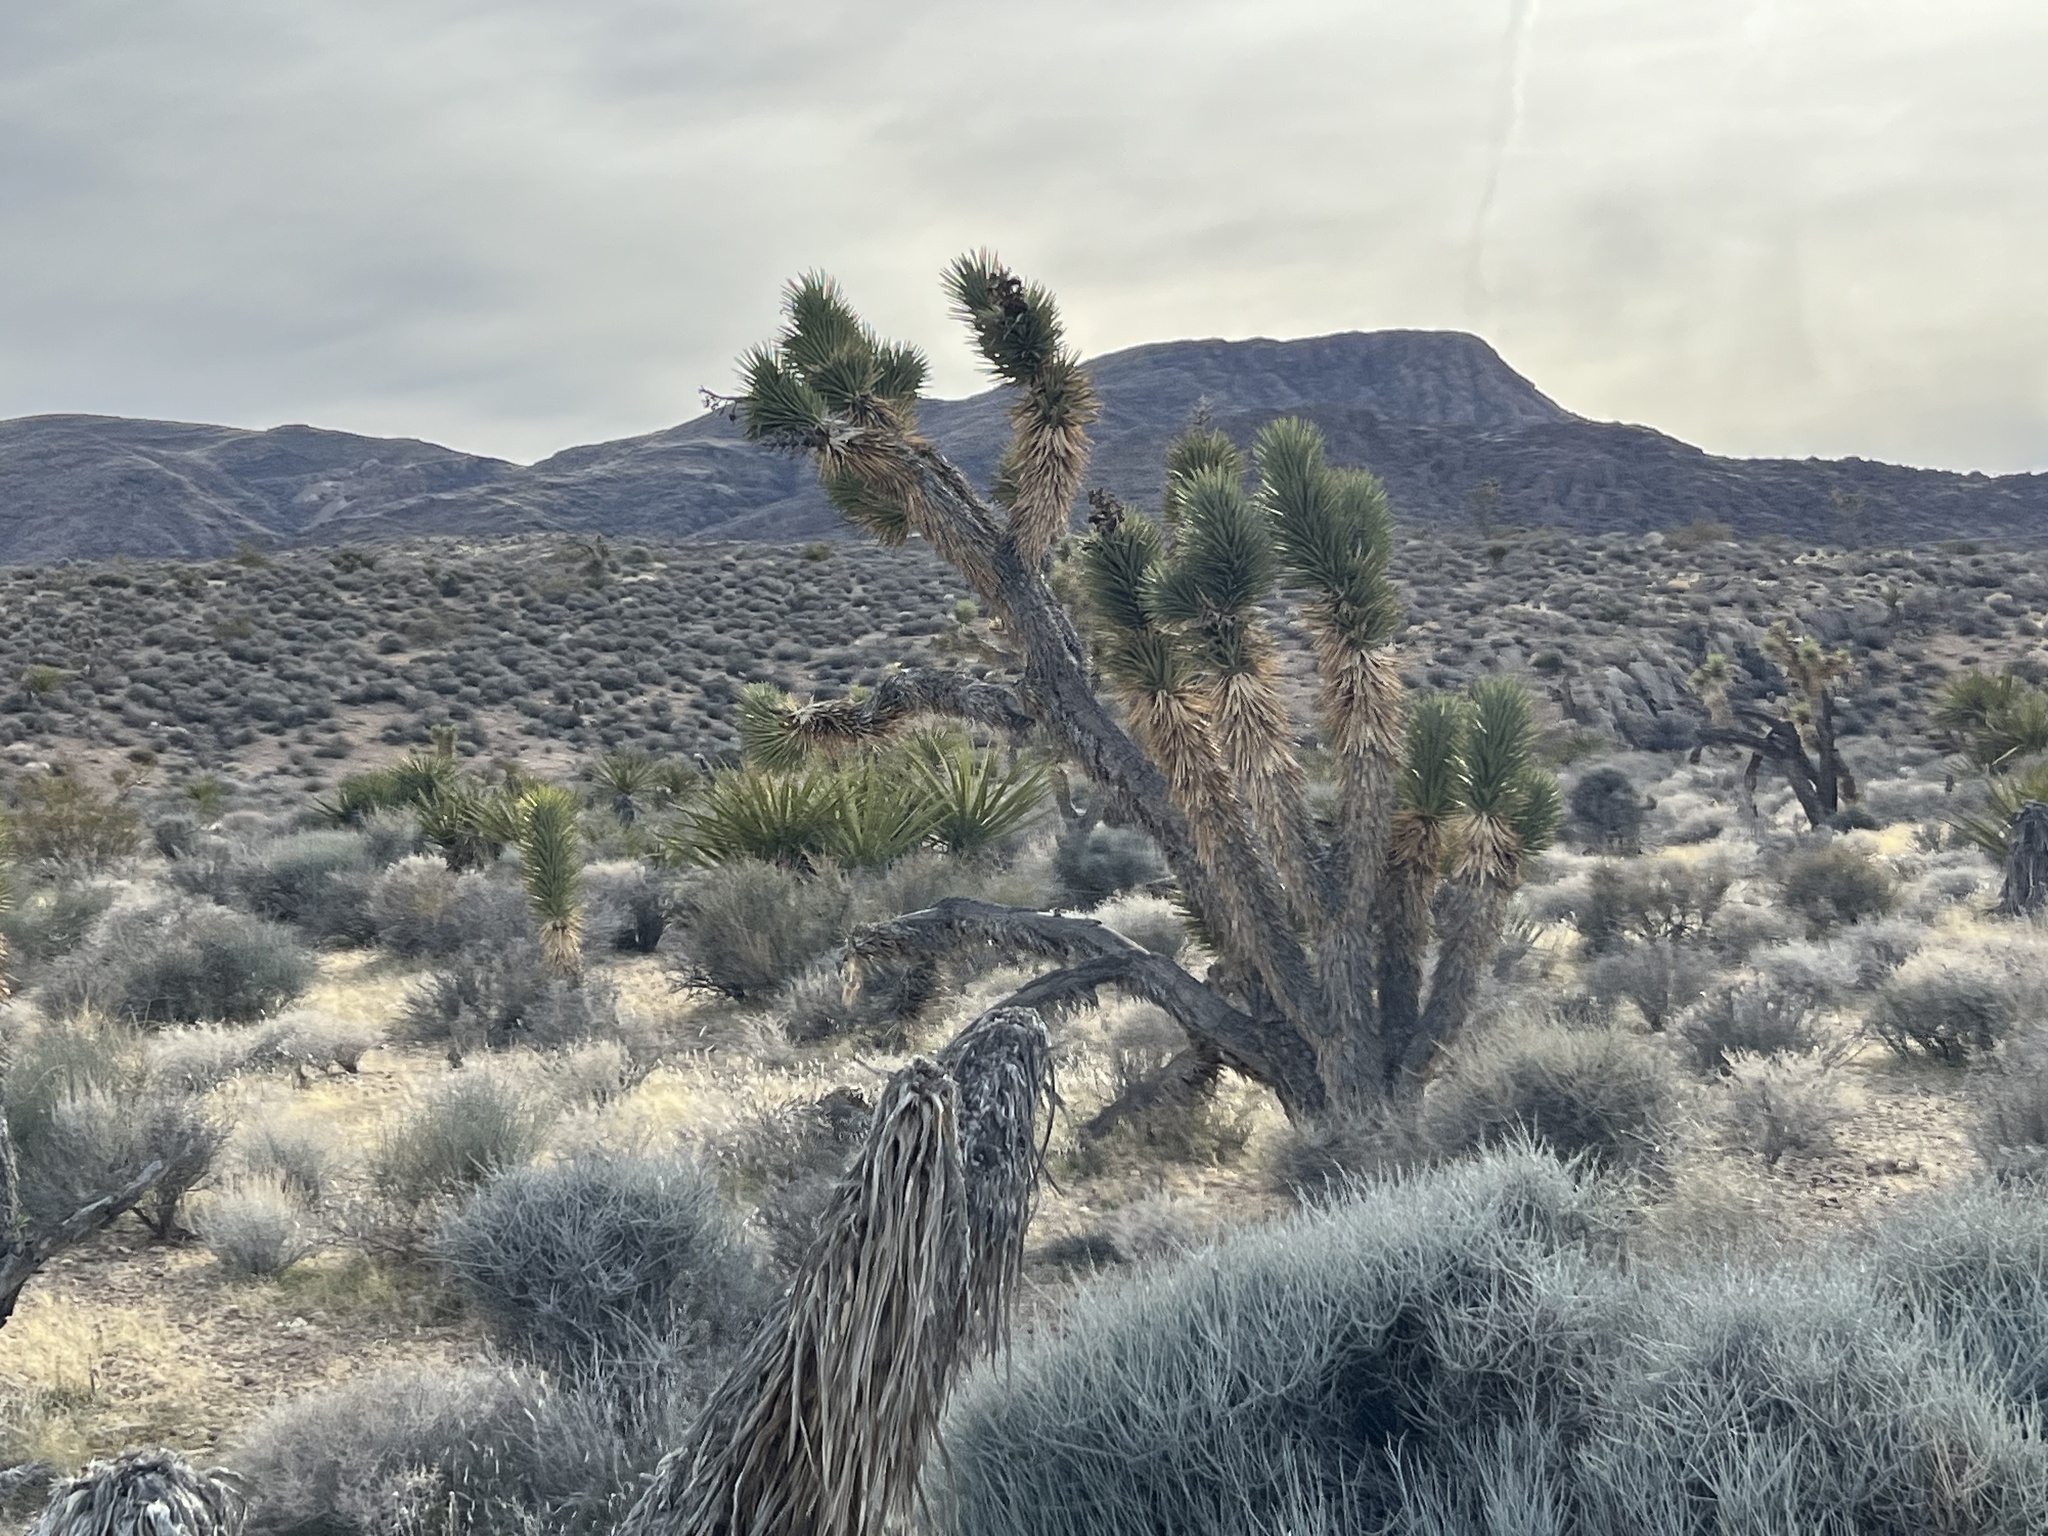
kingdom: Plantae
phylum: Tracheophyta
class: Liliopsida
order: Asparagales
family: Asparagaceae
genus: Yucca
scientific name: Yucca brevifolia
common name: Joshua tree
